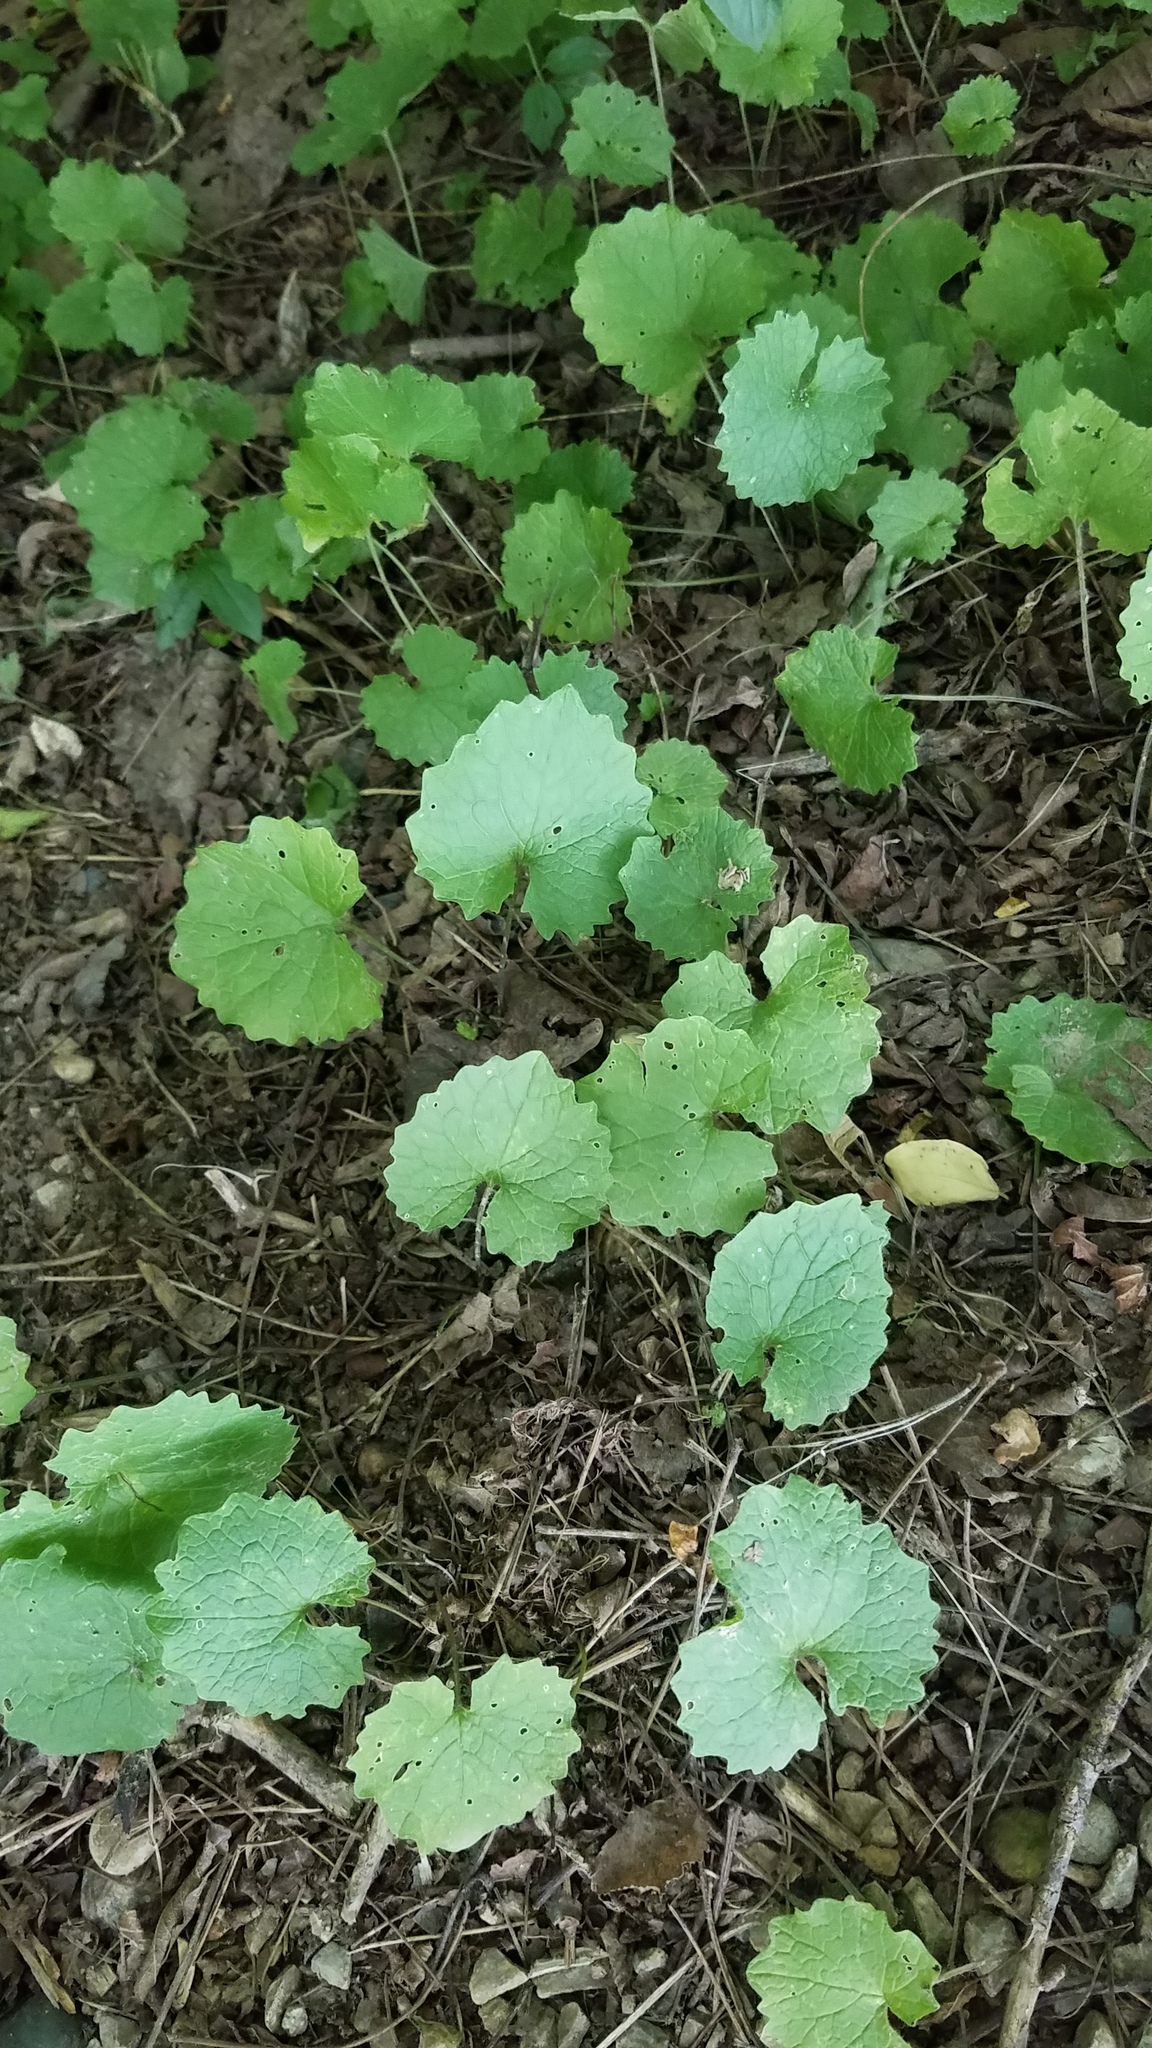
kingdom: Plantae
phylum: Tracheophyta
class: Magnoliopsida
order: Brassicales
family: Brassicaceae
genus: Alliaria
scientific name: Alliaria petiolata
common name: Garlic mustard
